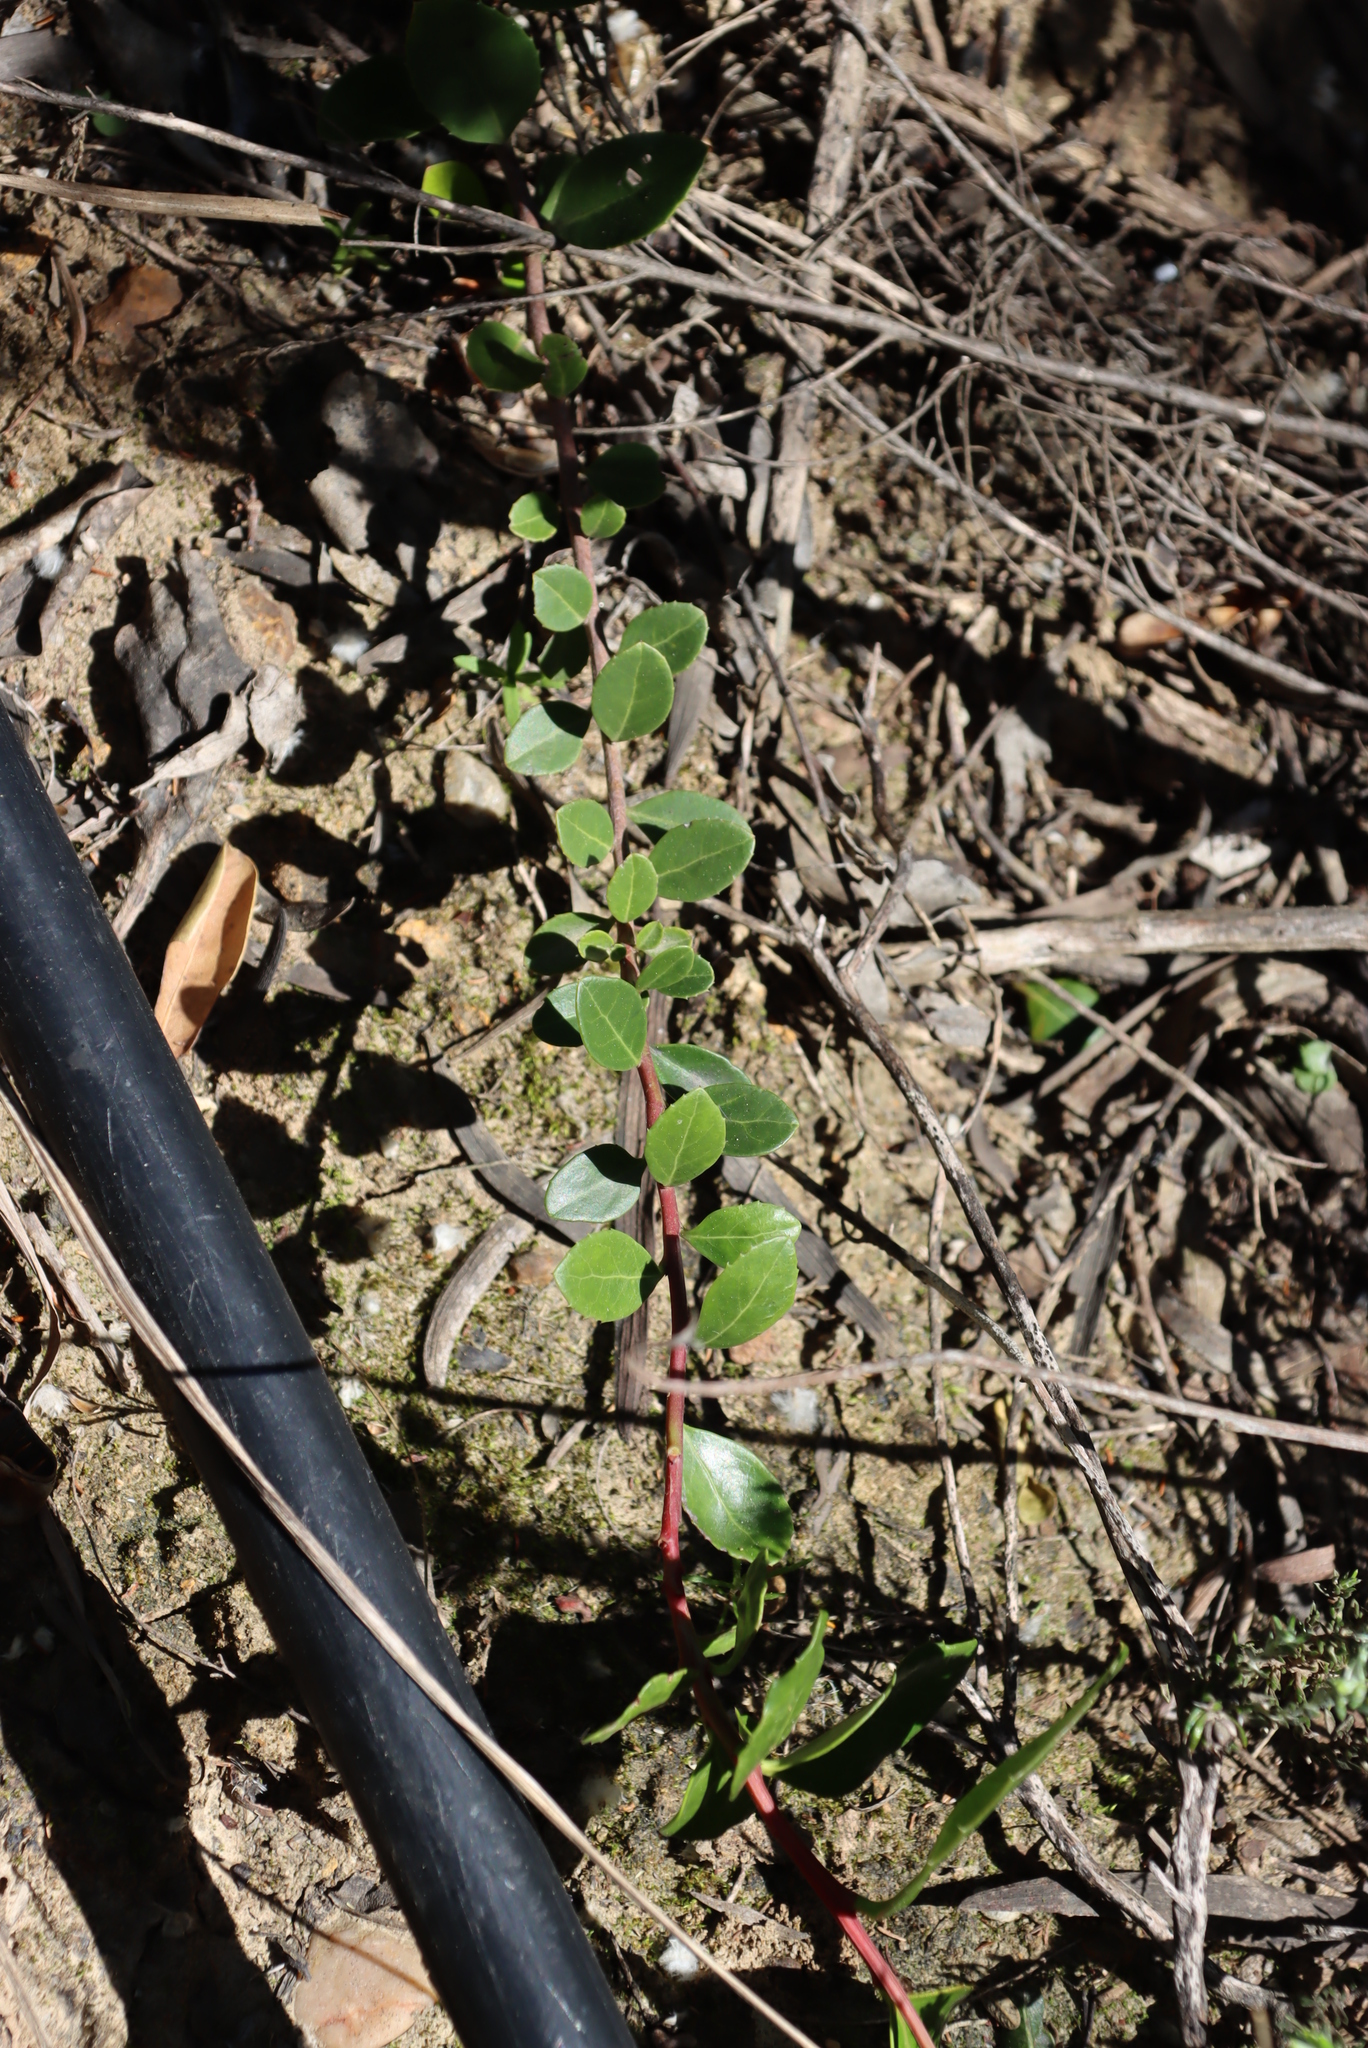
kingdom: Plantae
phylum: Tracheophyta
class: Magnoliopsida
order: Celastrales
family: Celastraceae
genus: Gymnosporia
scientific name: Gymnosporia procumbens
